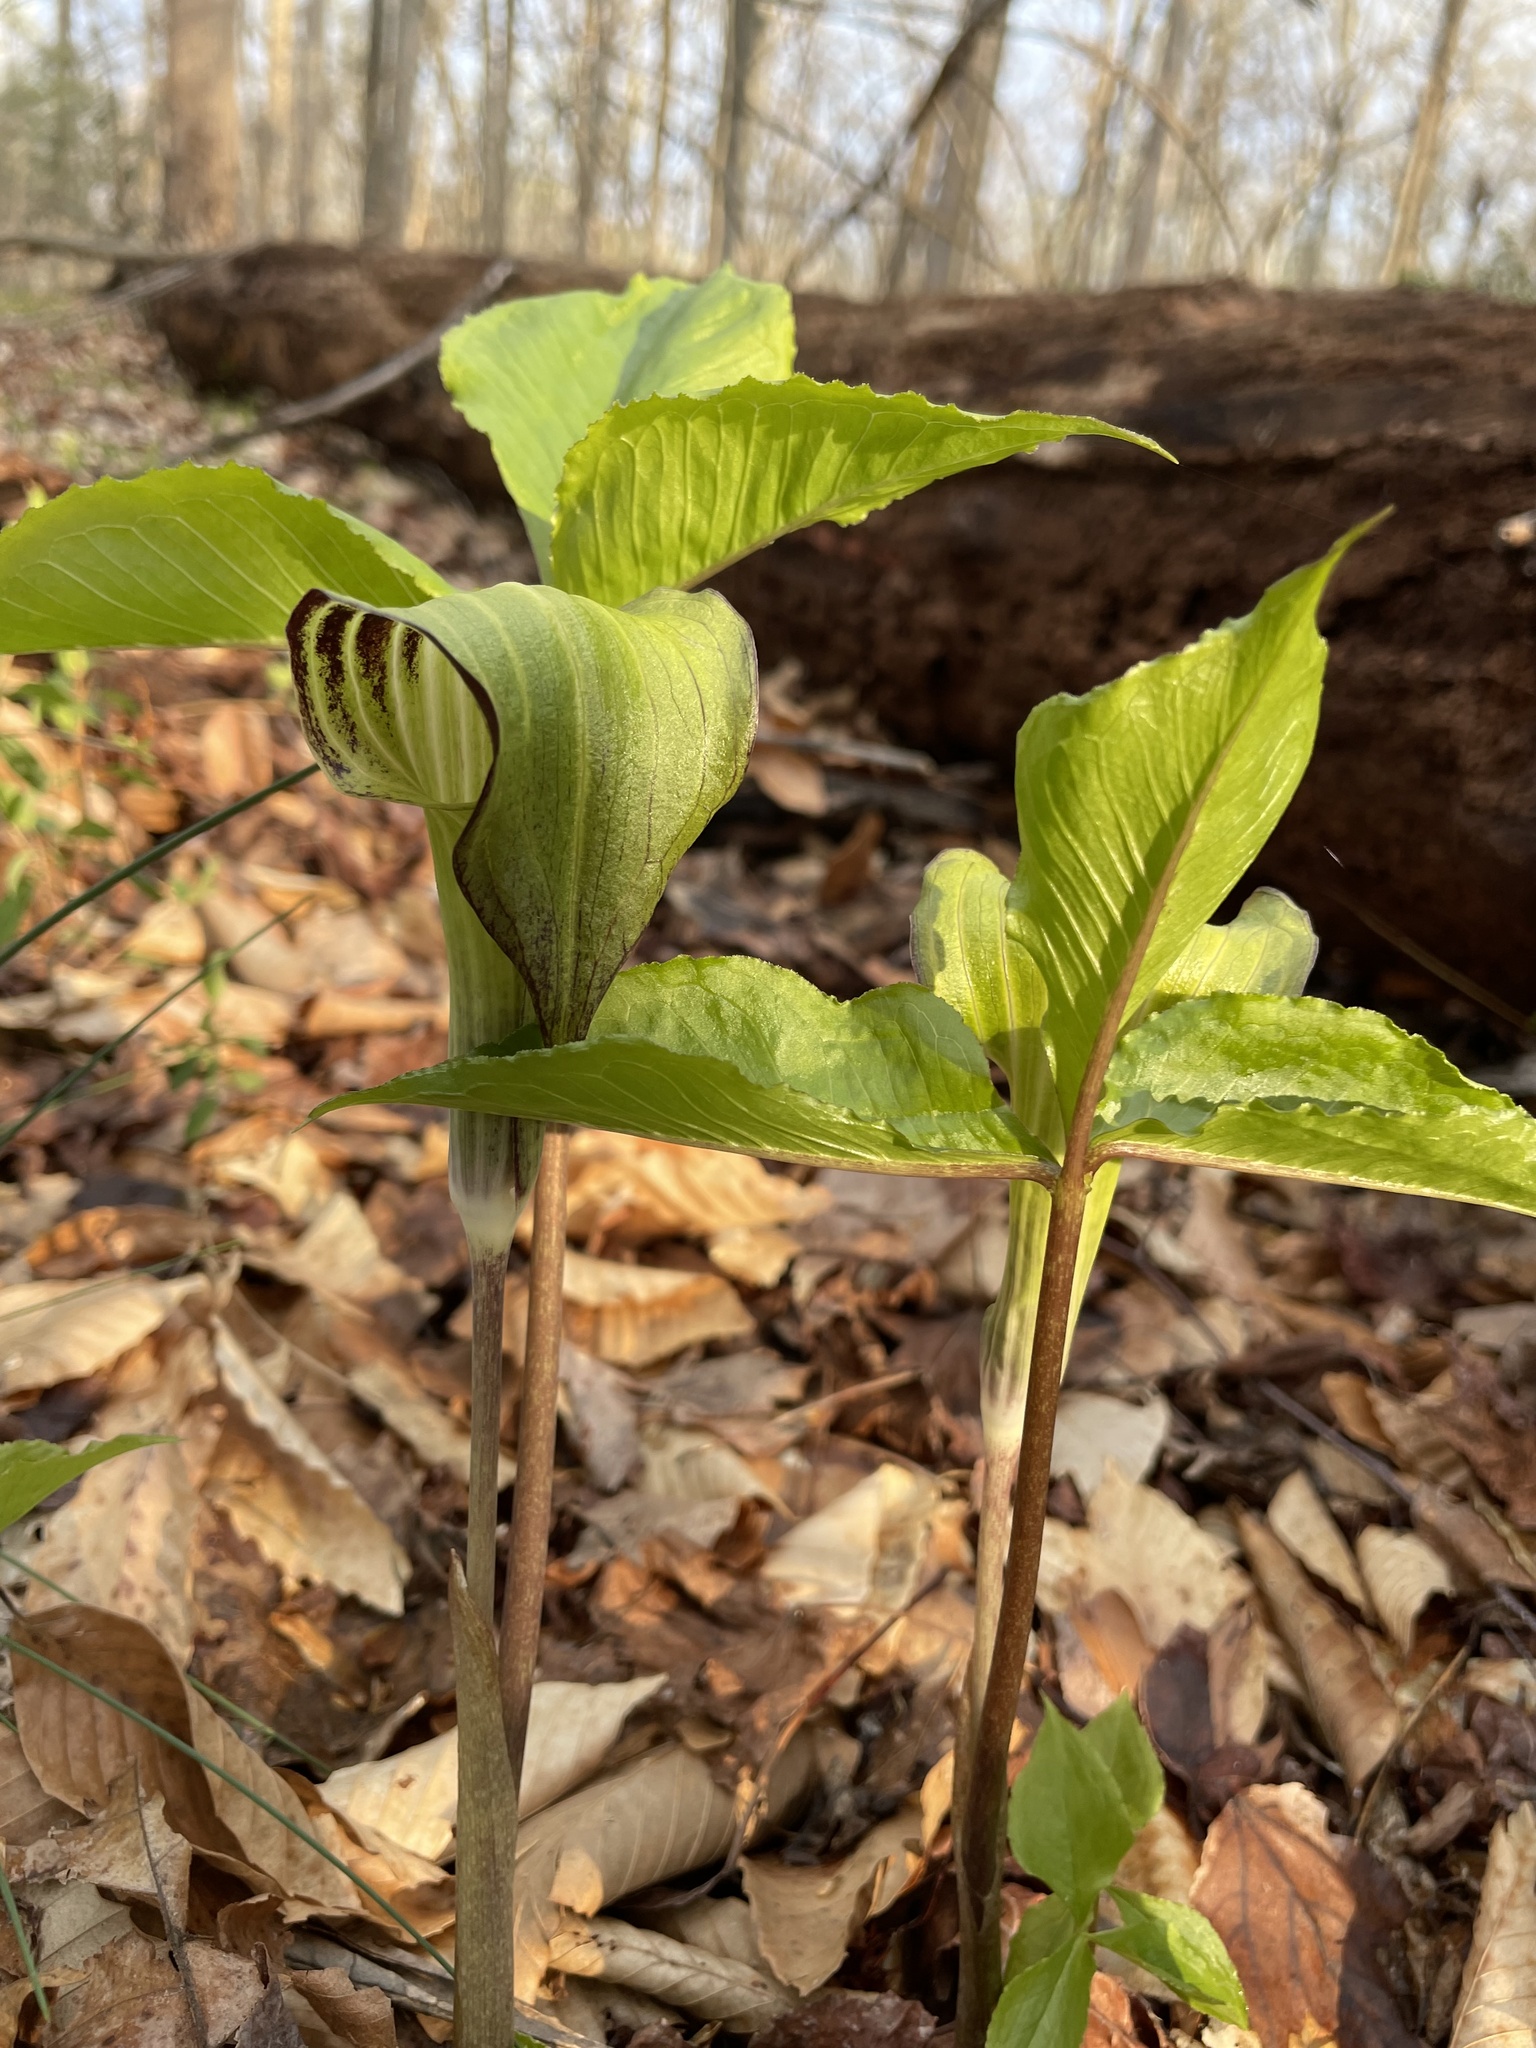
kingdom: Plantae
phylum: Tracheophyta
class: Liliopsida
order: Alismatales
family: Araceae
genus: Arisaema
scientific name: Arisaema triphyllum
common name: Jack-in-the-pulpit
